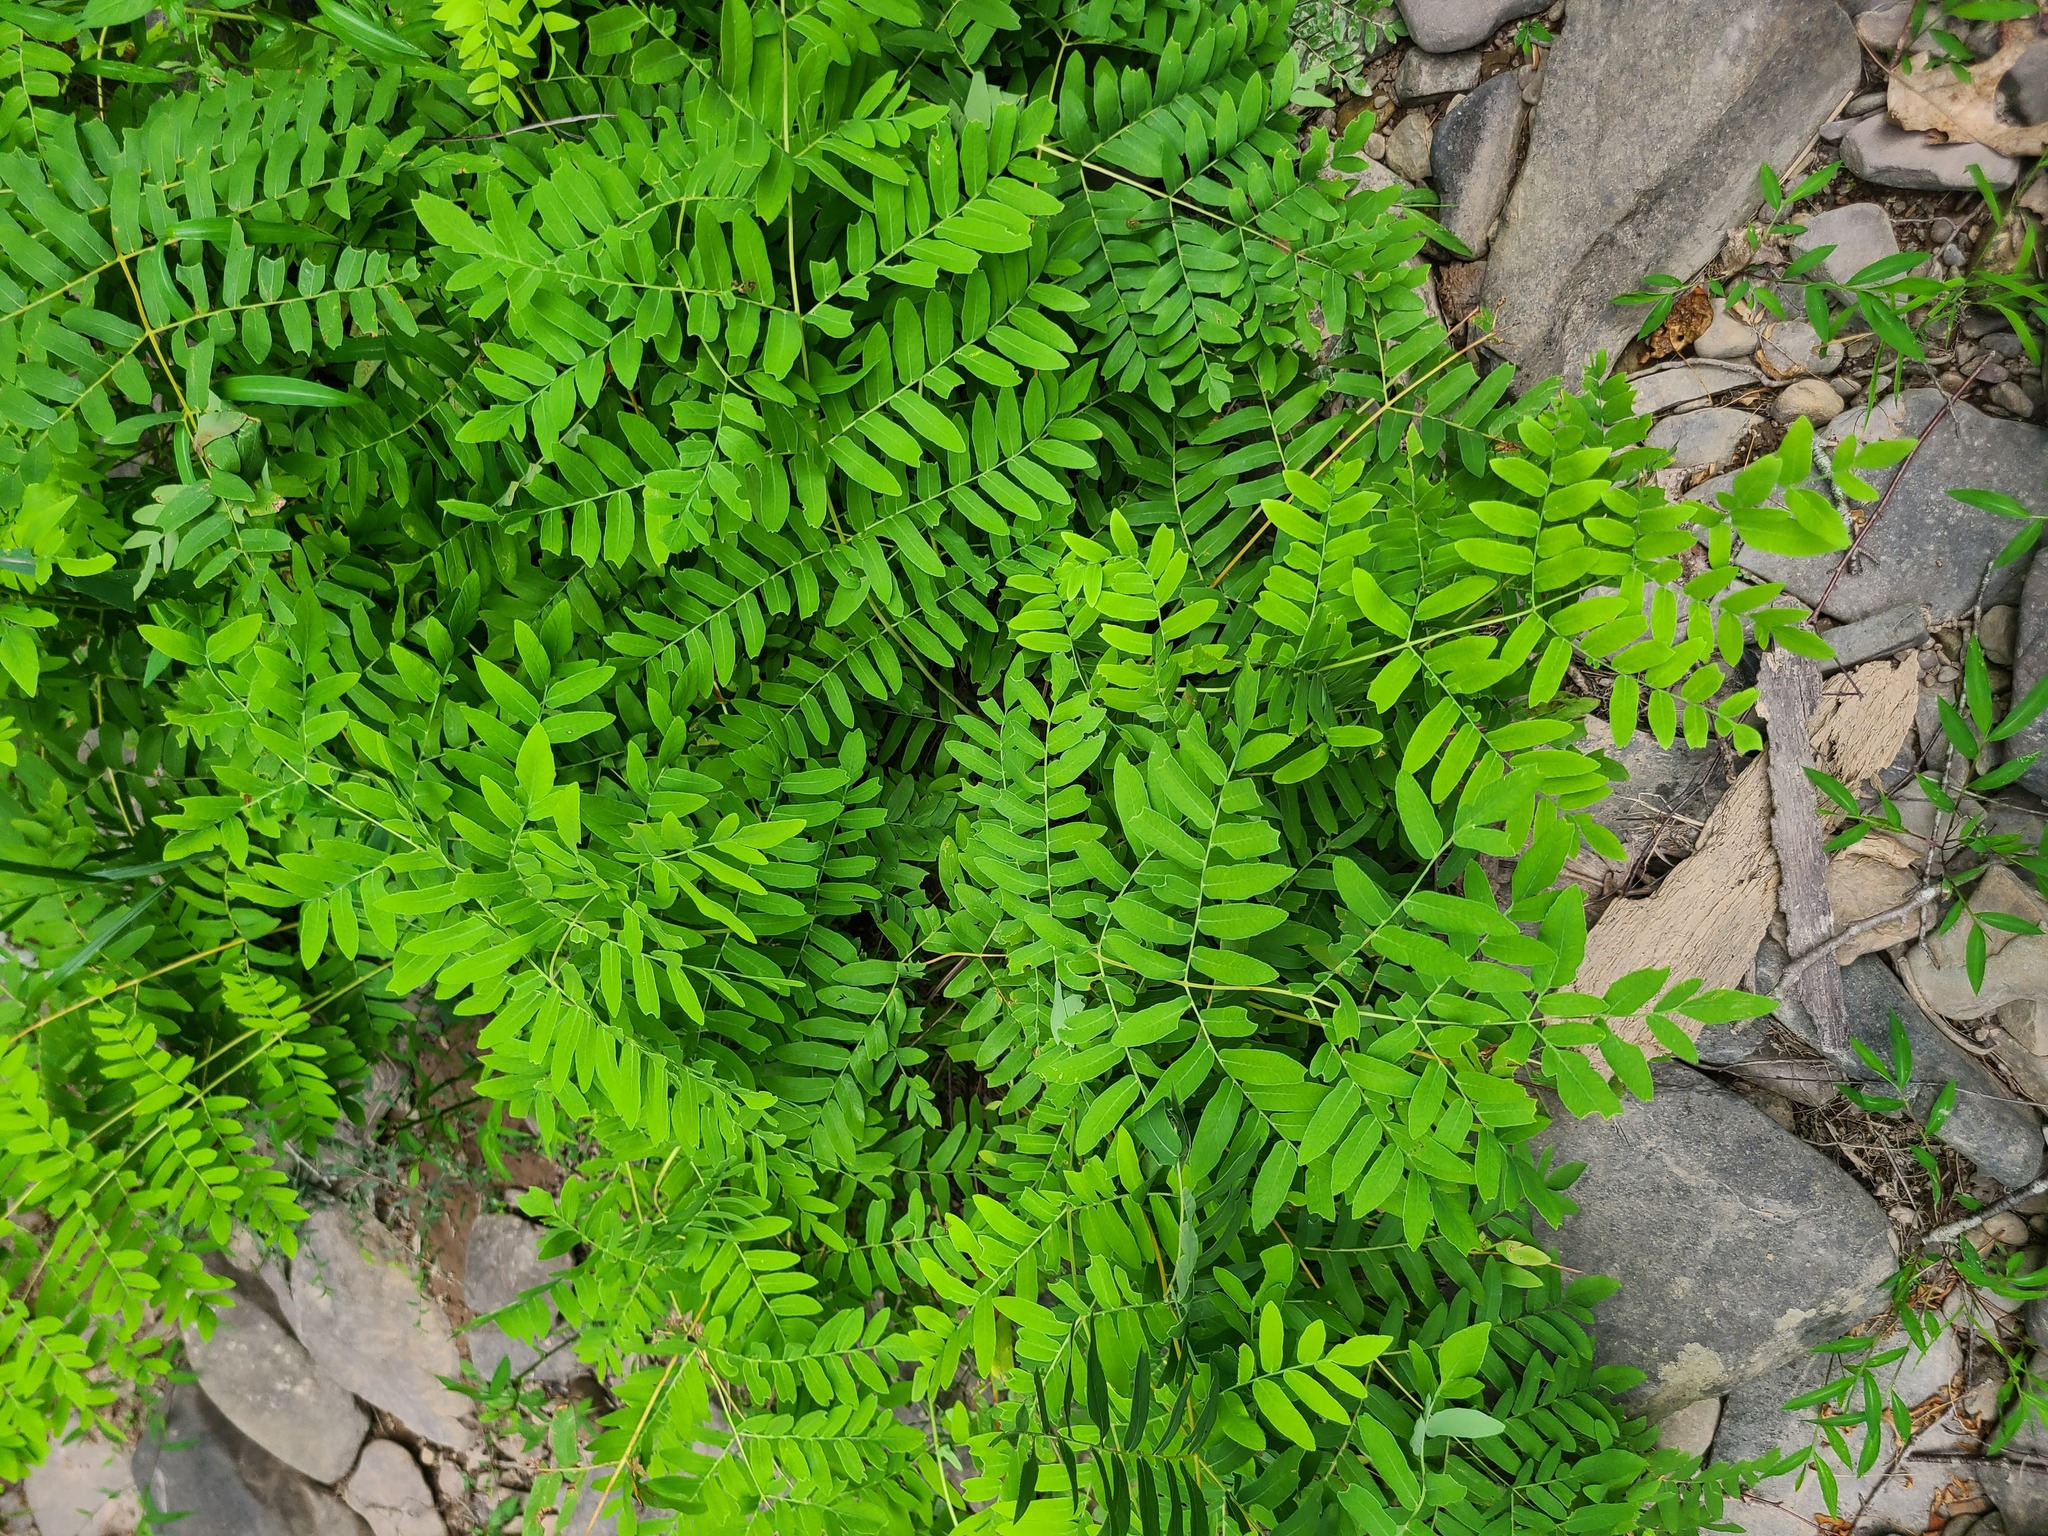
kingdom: Plantae
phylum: Tracheophyta
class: Polypodiopsida
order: Osmundales
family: Osmundaceae
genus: Osmunda
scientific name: Osmunda spectabilis
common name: American royal fern
